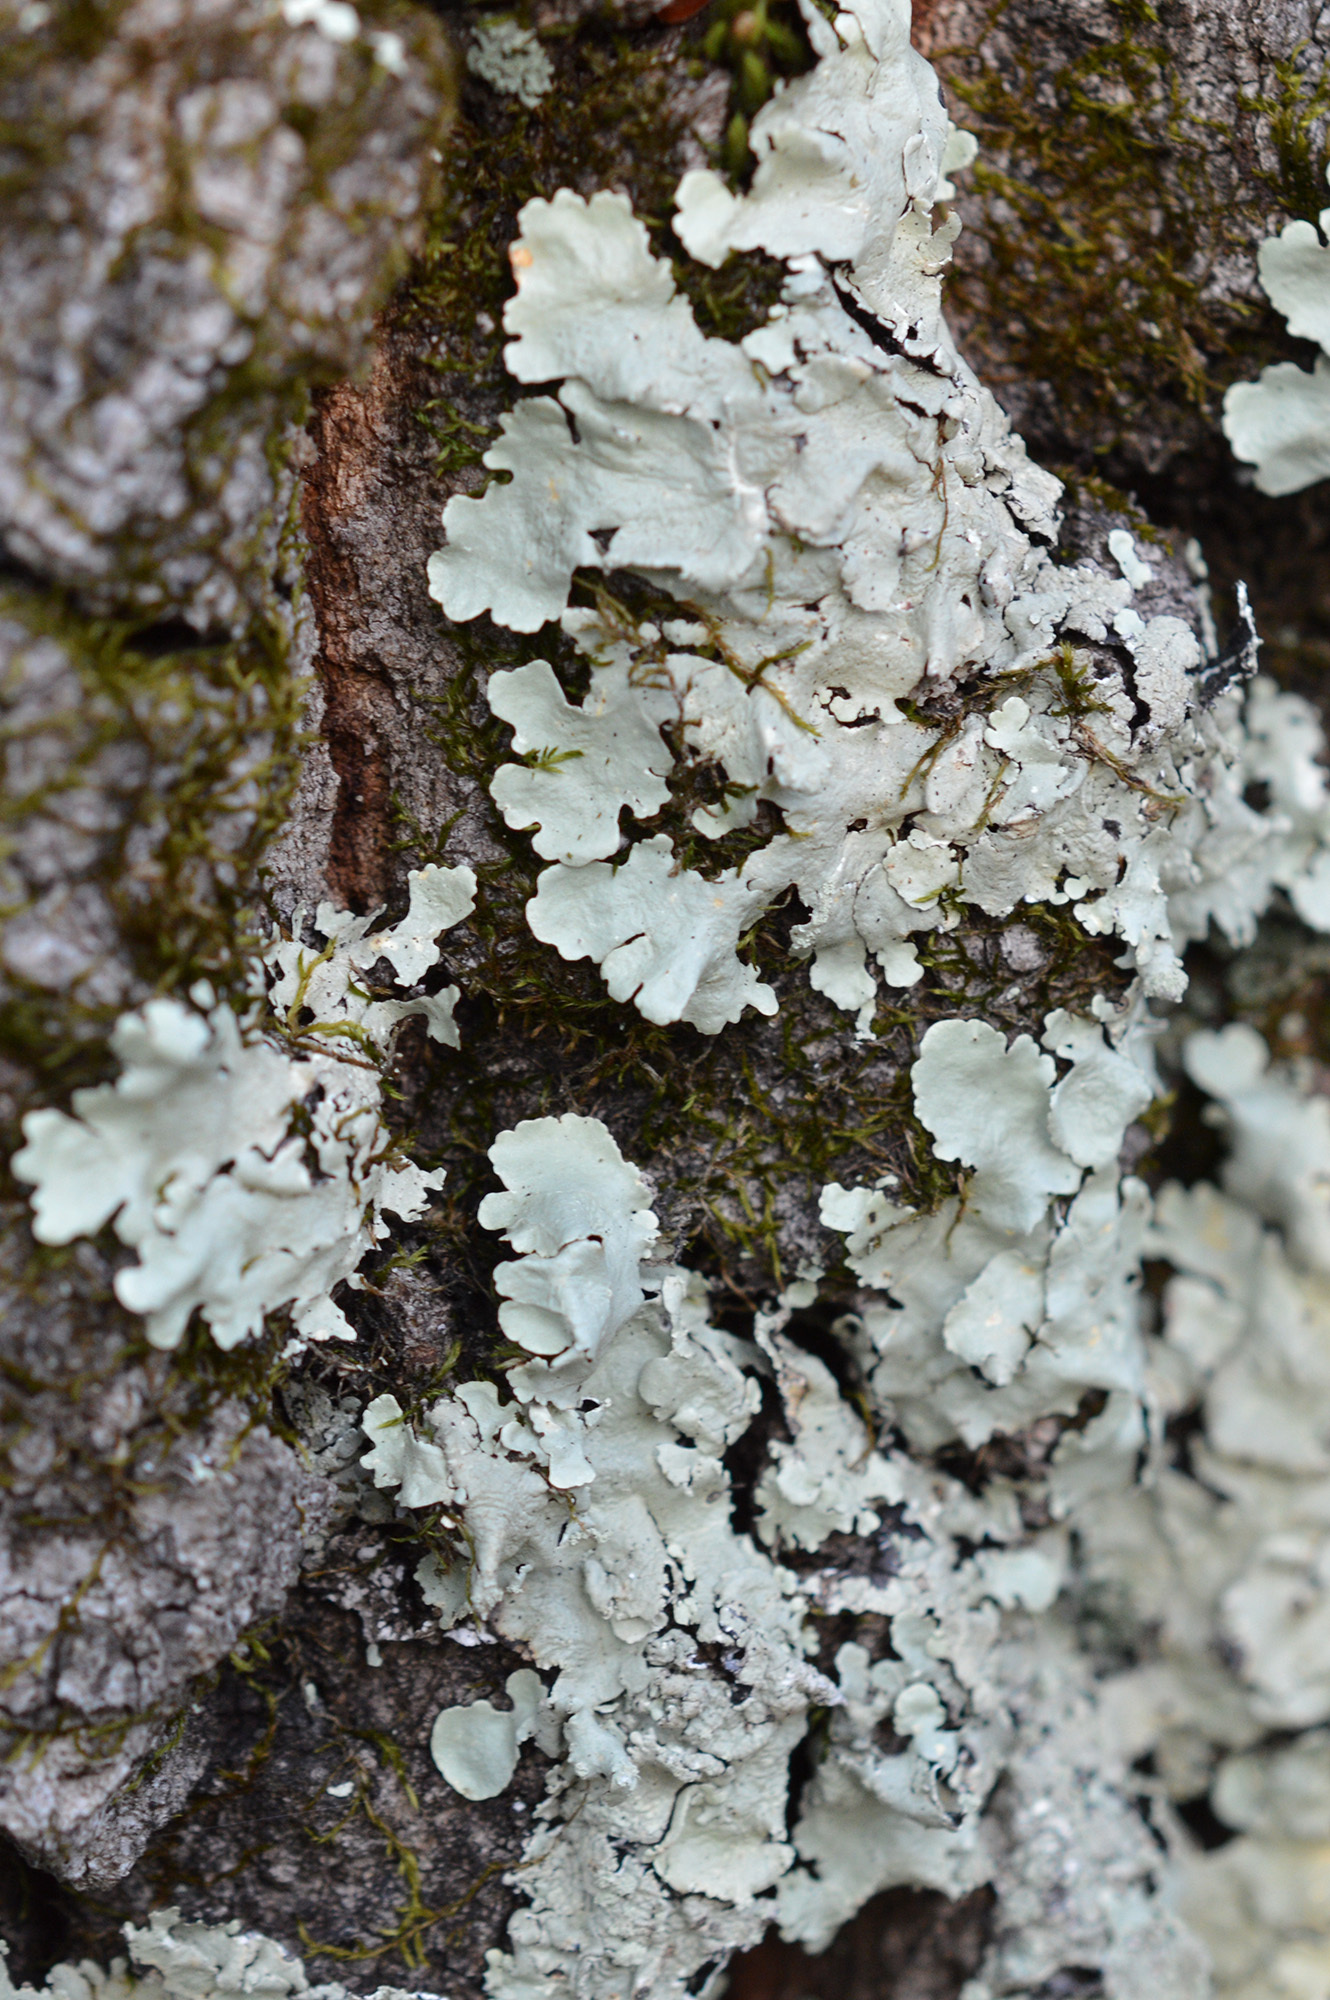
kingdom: Fungi
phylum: Ascomycota
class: Lecanoromycetes
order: Lecanorales
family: Parmeliaceae
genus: Flavoparmelia
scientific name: Flavoparmelia caperata
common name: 40-mile per hour lichen
